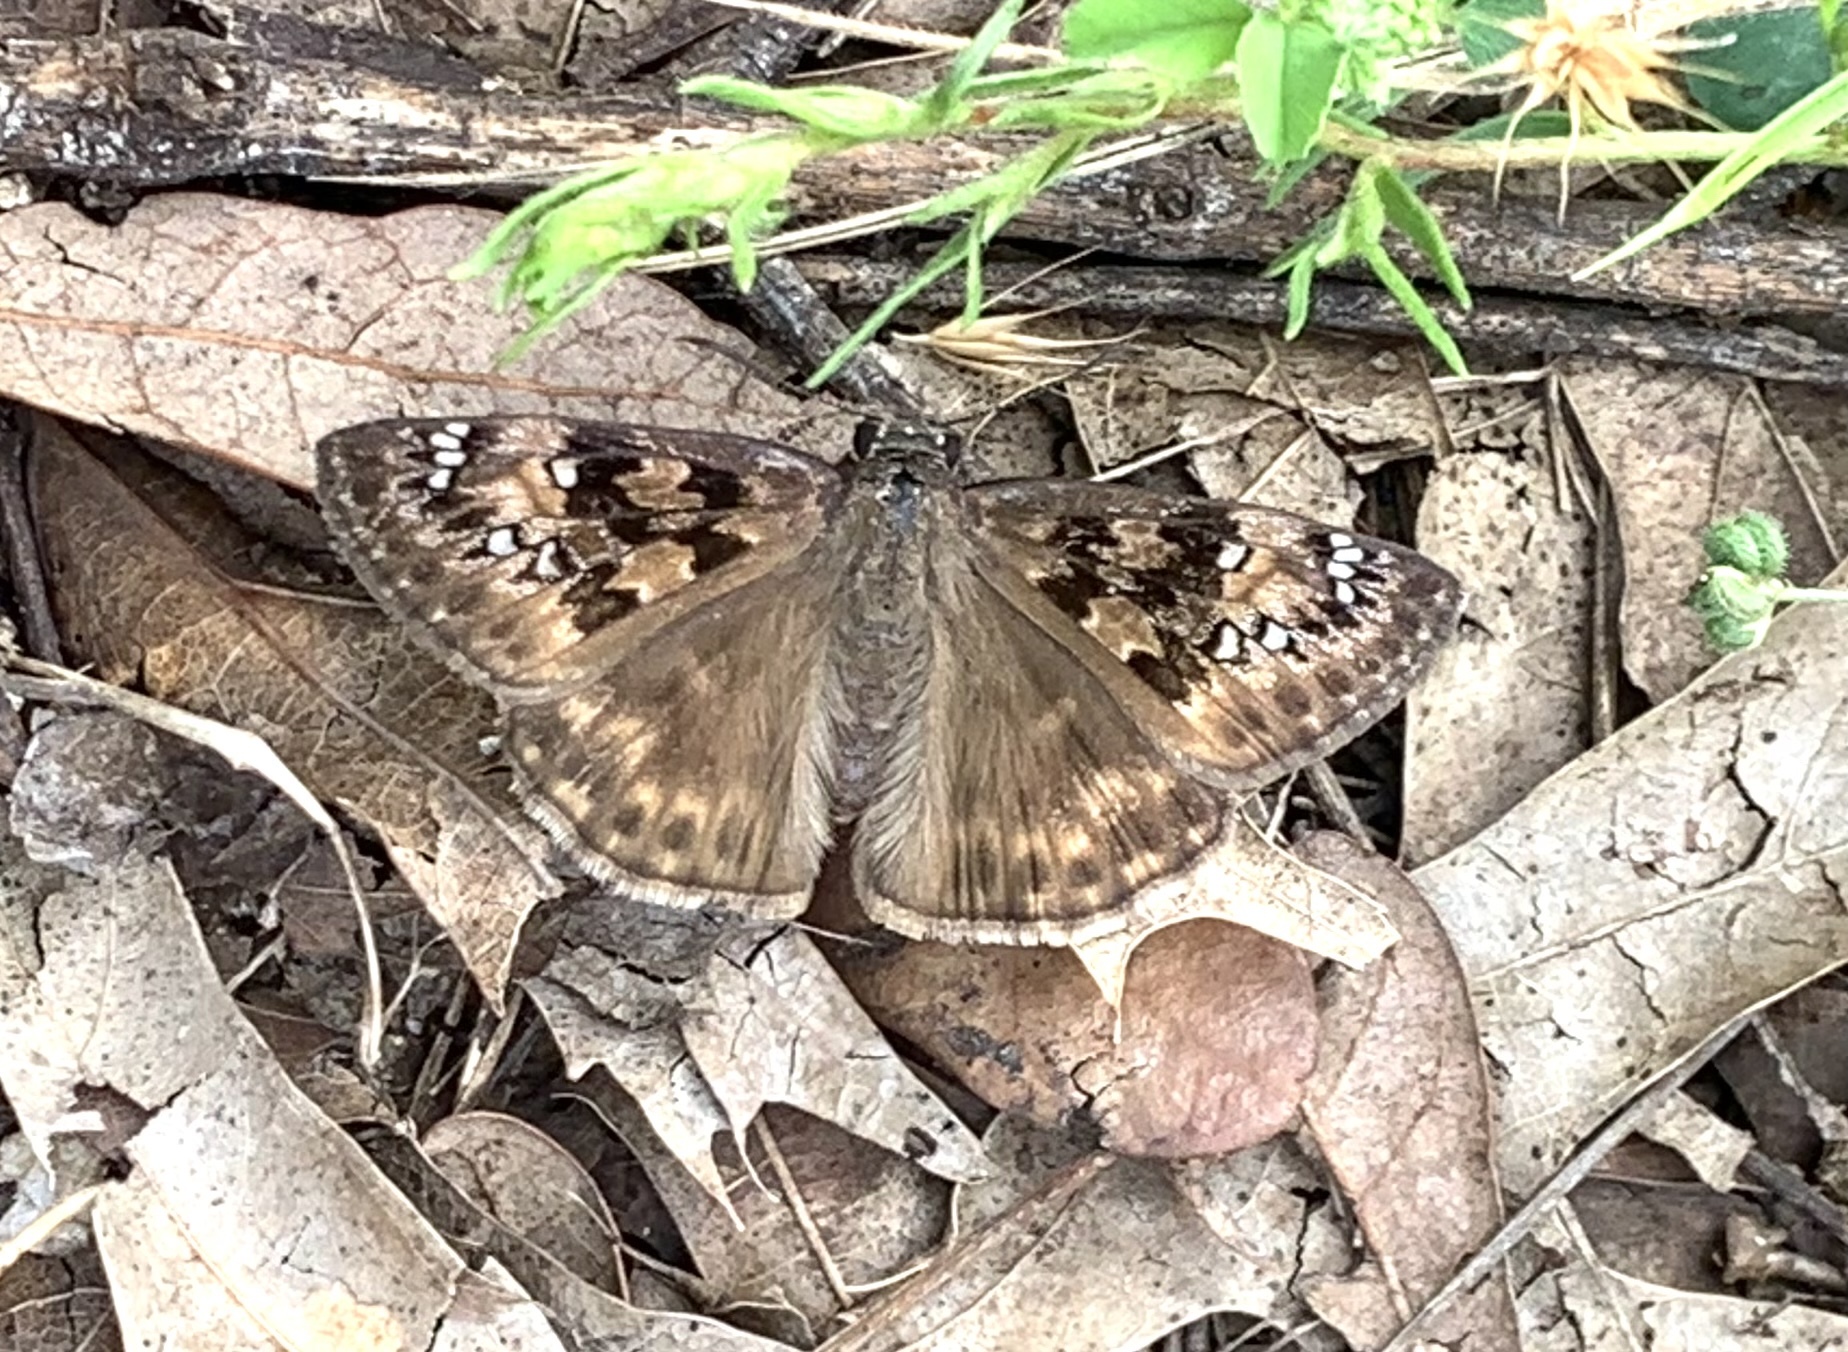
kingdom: Animalia
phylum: Arthropoda
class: Insecta
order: Lepidoptera
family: Hesperiidae
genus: Erynnis
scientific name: Erynnis horatius
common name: Horace's duskywing
